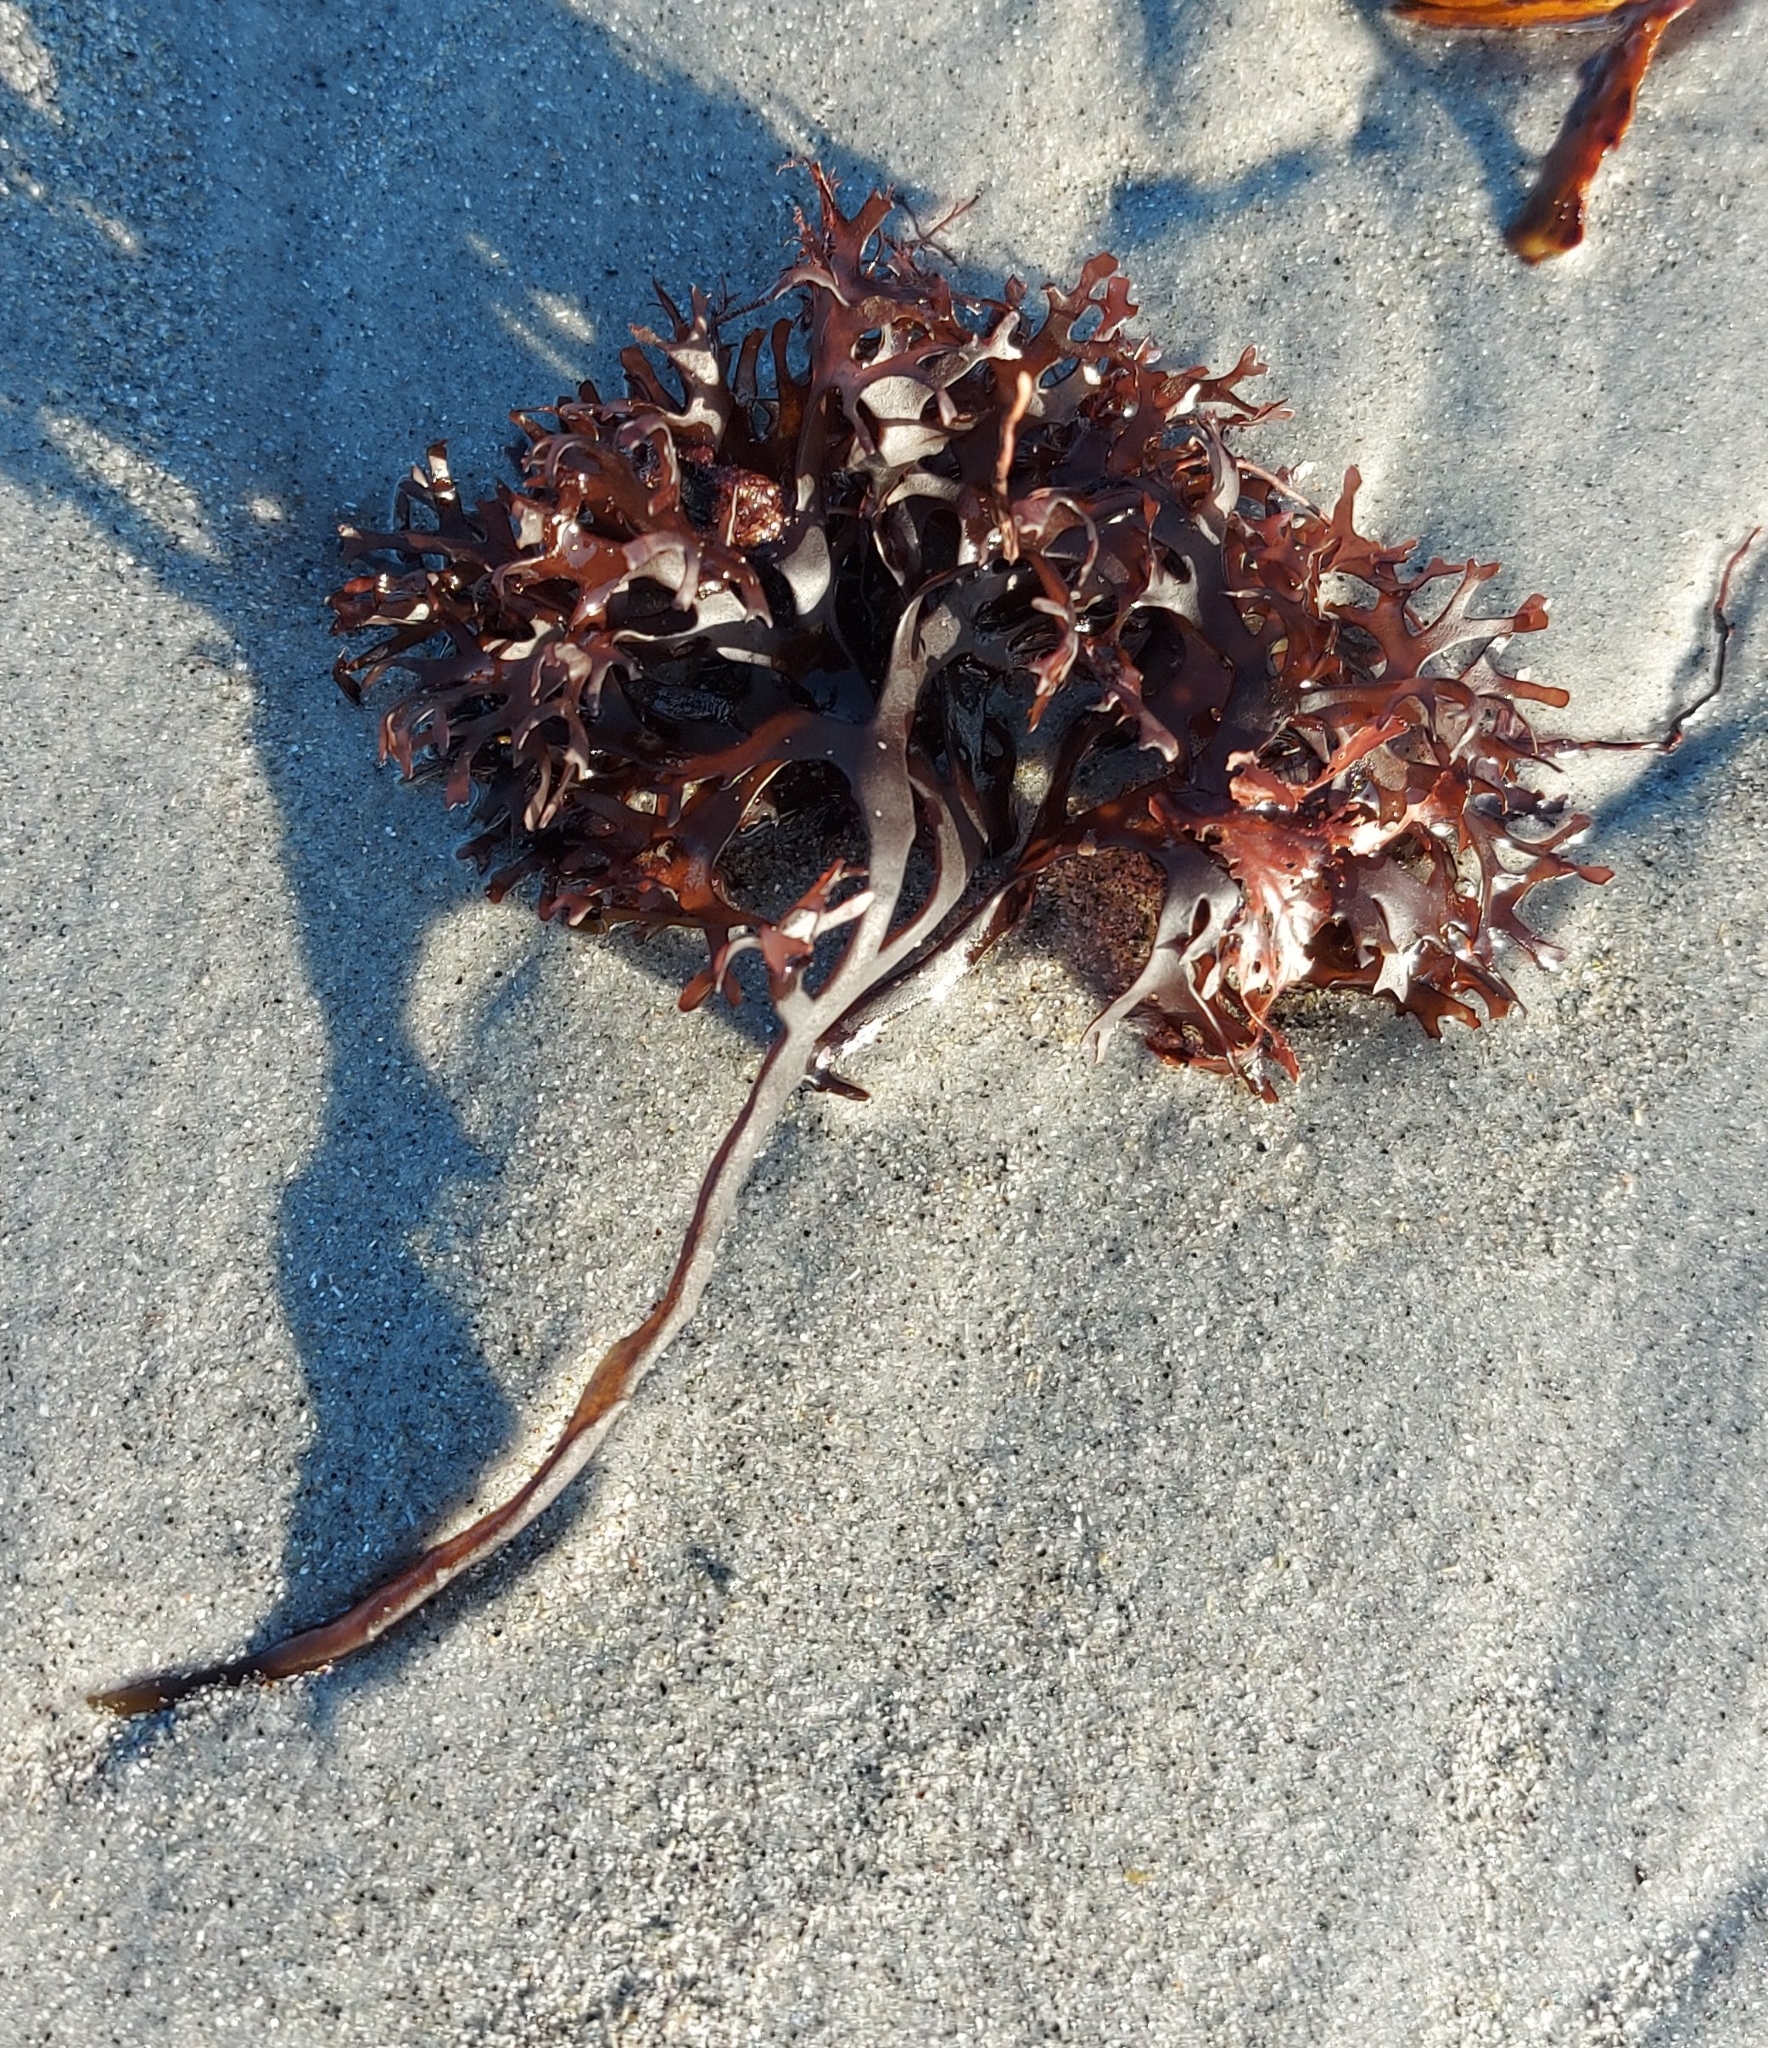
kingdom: Plantae
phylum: Rhodophyta
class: Florideophyceae
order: Gigartinales
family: Gigartinaceae
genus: Chondrus
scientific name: Chondrus crispus
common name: Carrageen
